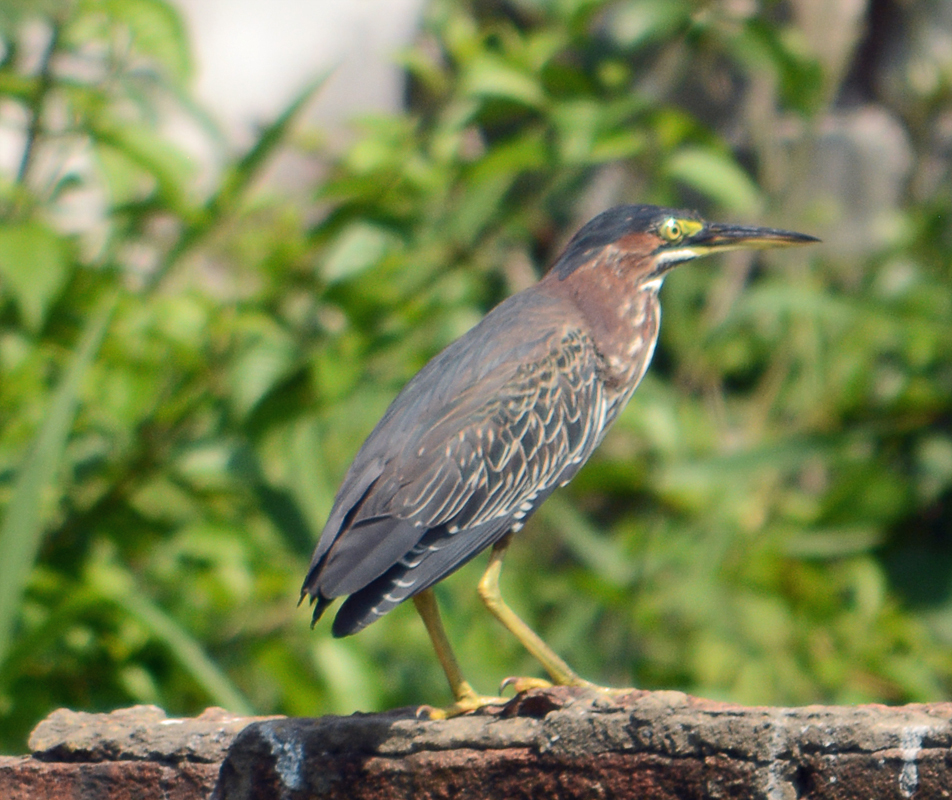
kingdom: Animalia
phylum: Chordata
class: Aves
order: Pelecaniformes
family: Ardeidae
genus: Butorides
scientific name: Butorides virescens
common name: Green heron
